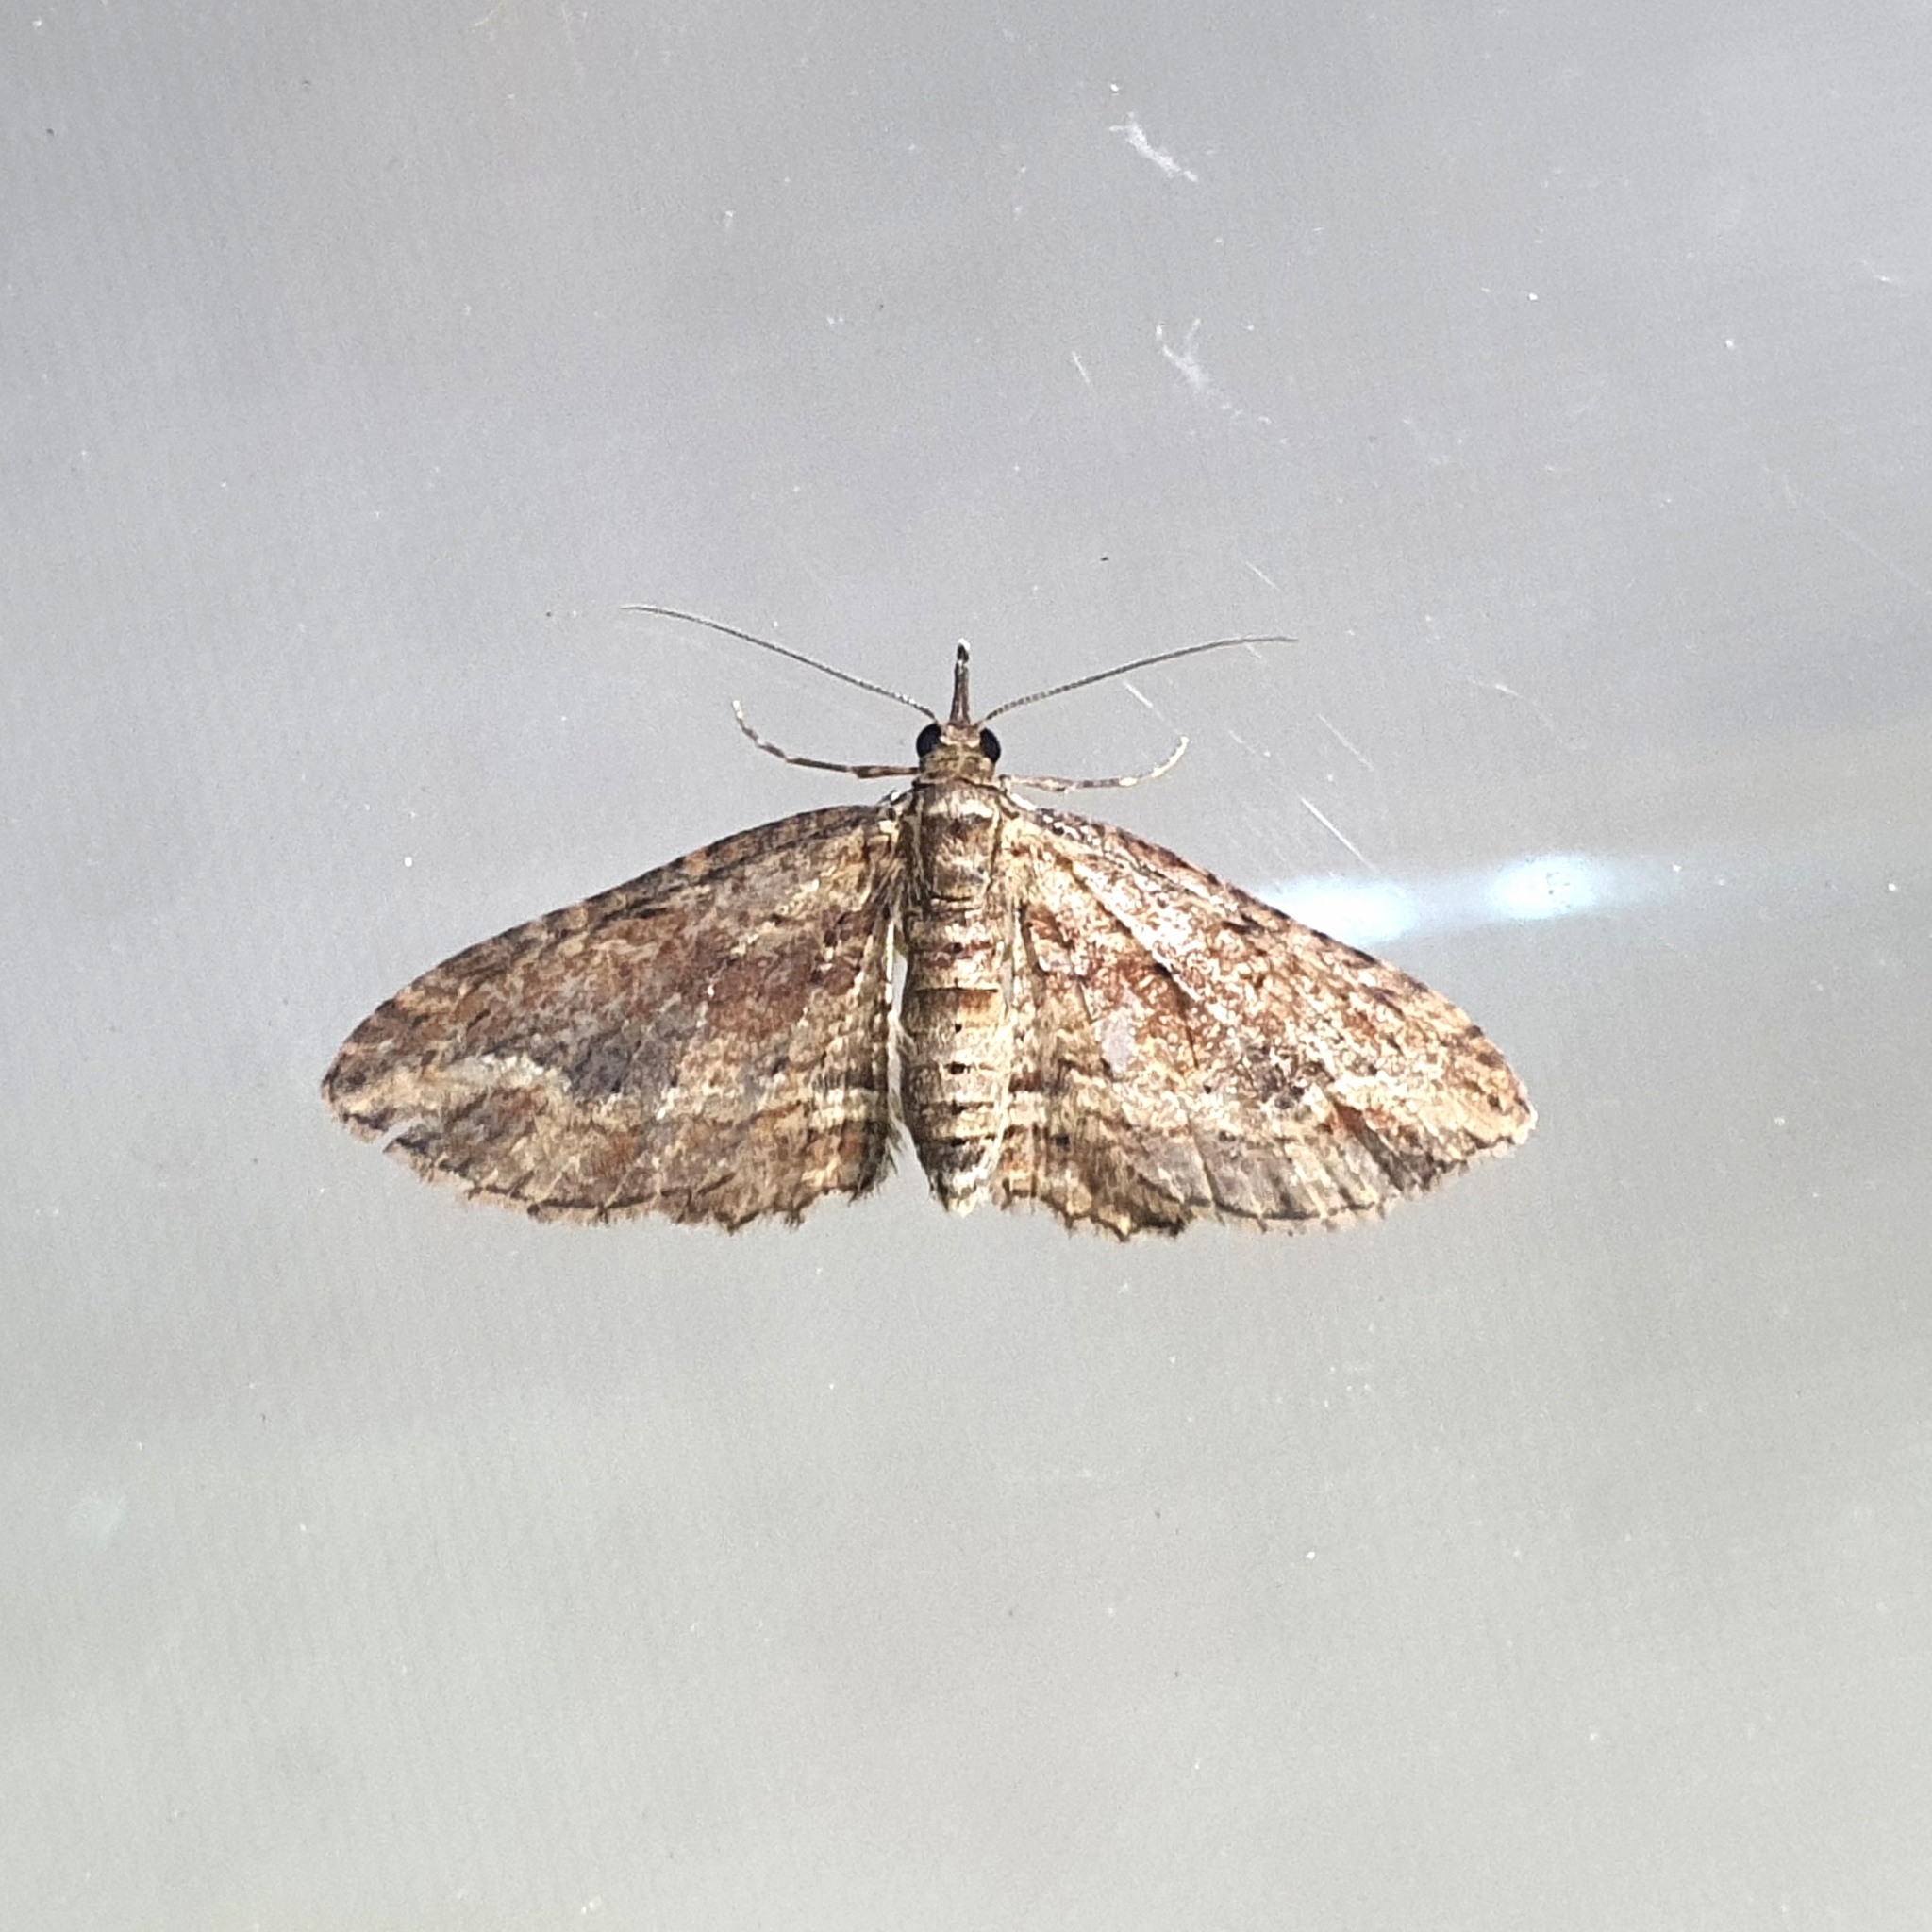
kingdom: Animalia
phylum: Arthropoda
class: Insecta
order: Lepidoptera
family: Geometridae
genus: Chloroclystis
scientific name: Chloroclystis filata
